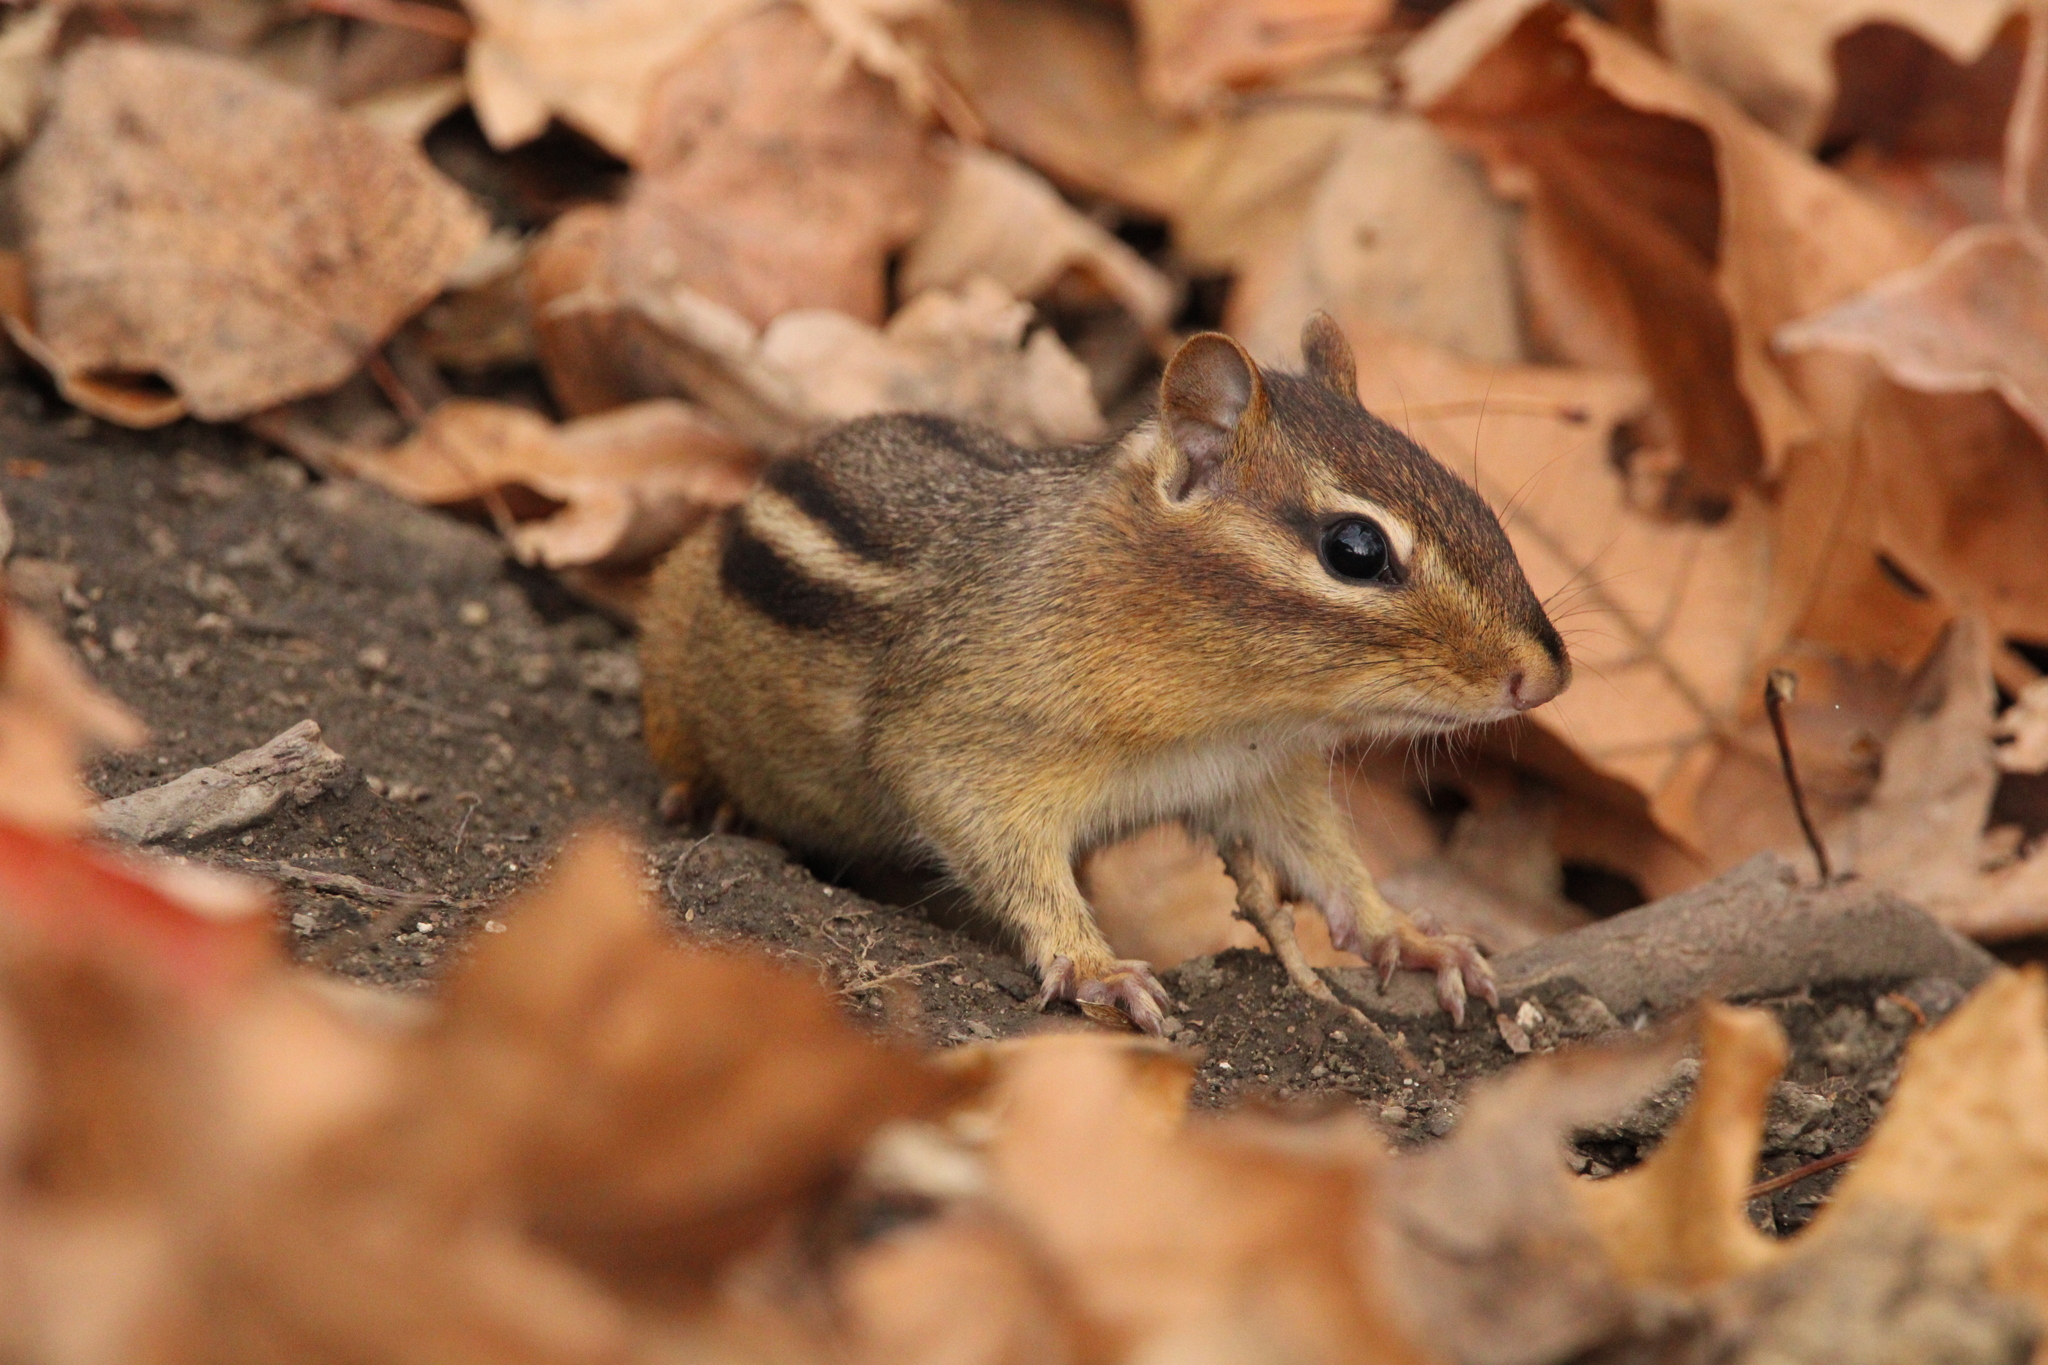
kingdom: Animalia
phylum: Chordata
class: Mammalia
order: Rodentia
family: Sciuridae
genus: Tamias
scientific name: Tamias striatus
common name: Eastern chipmunk
